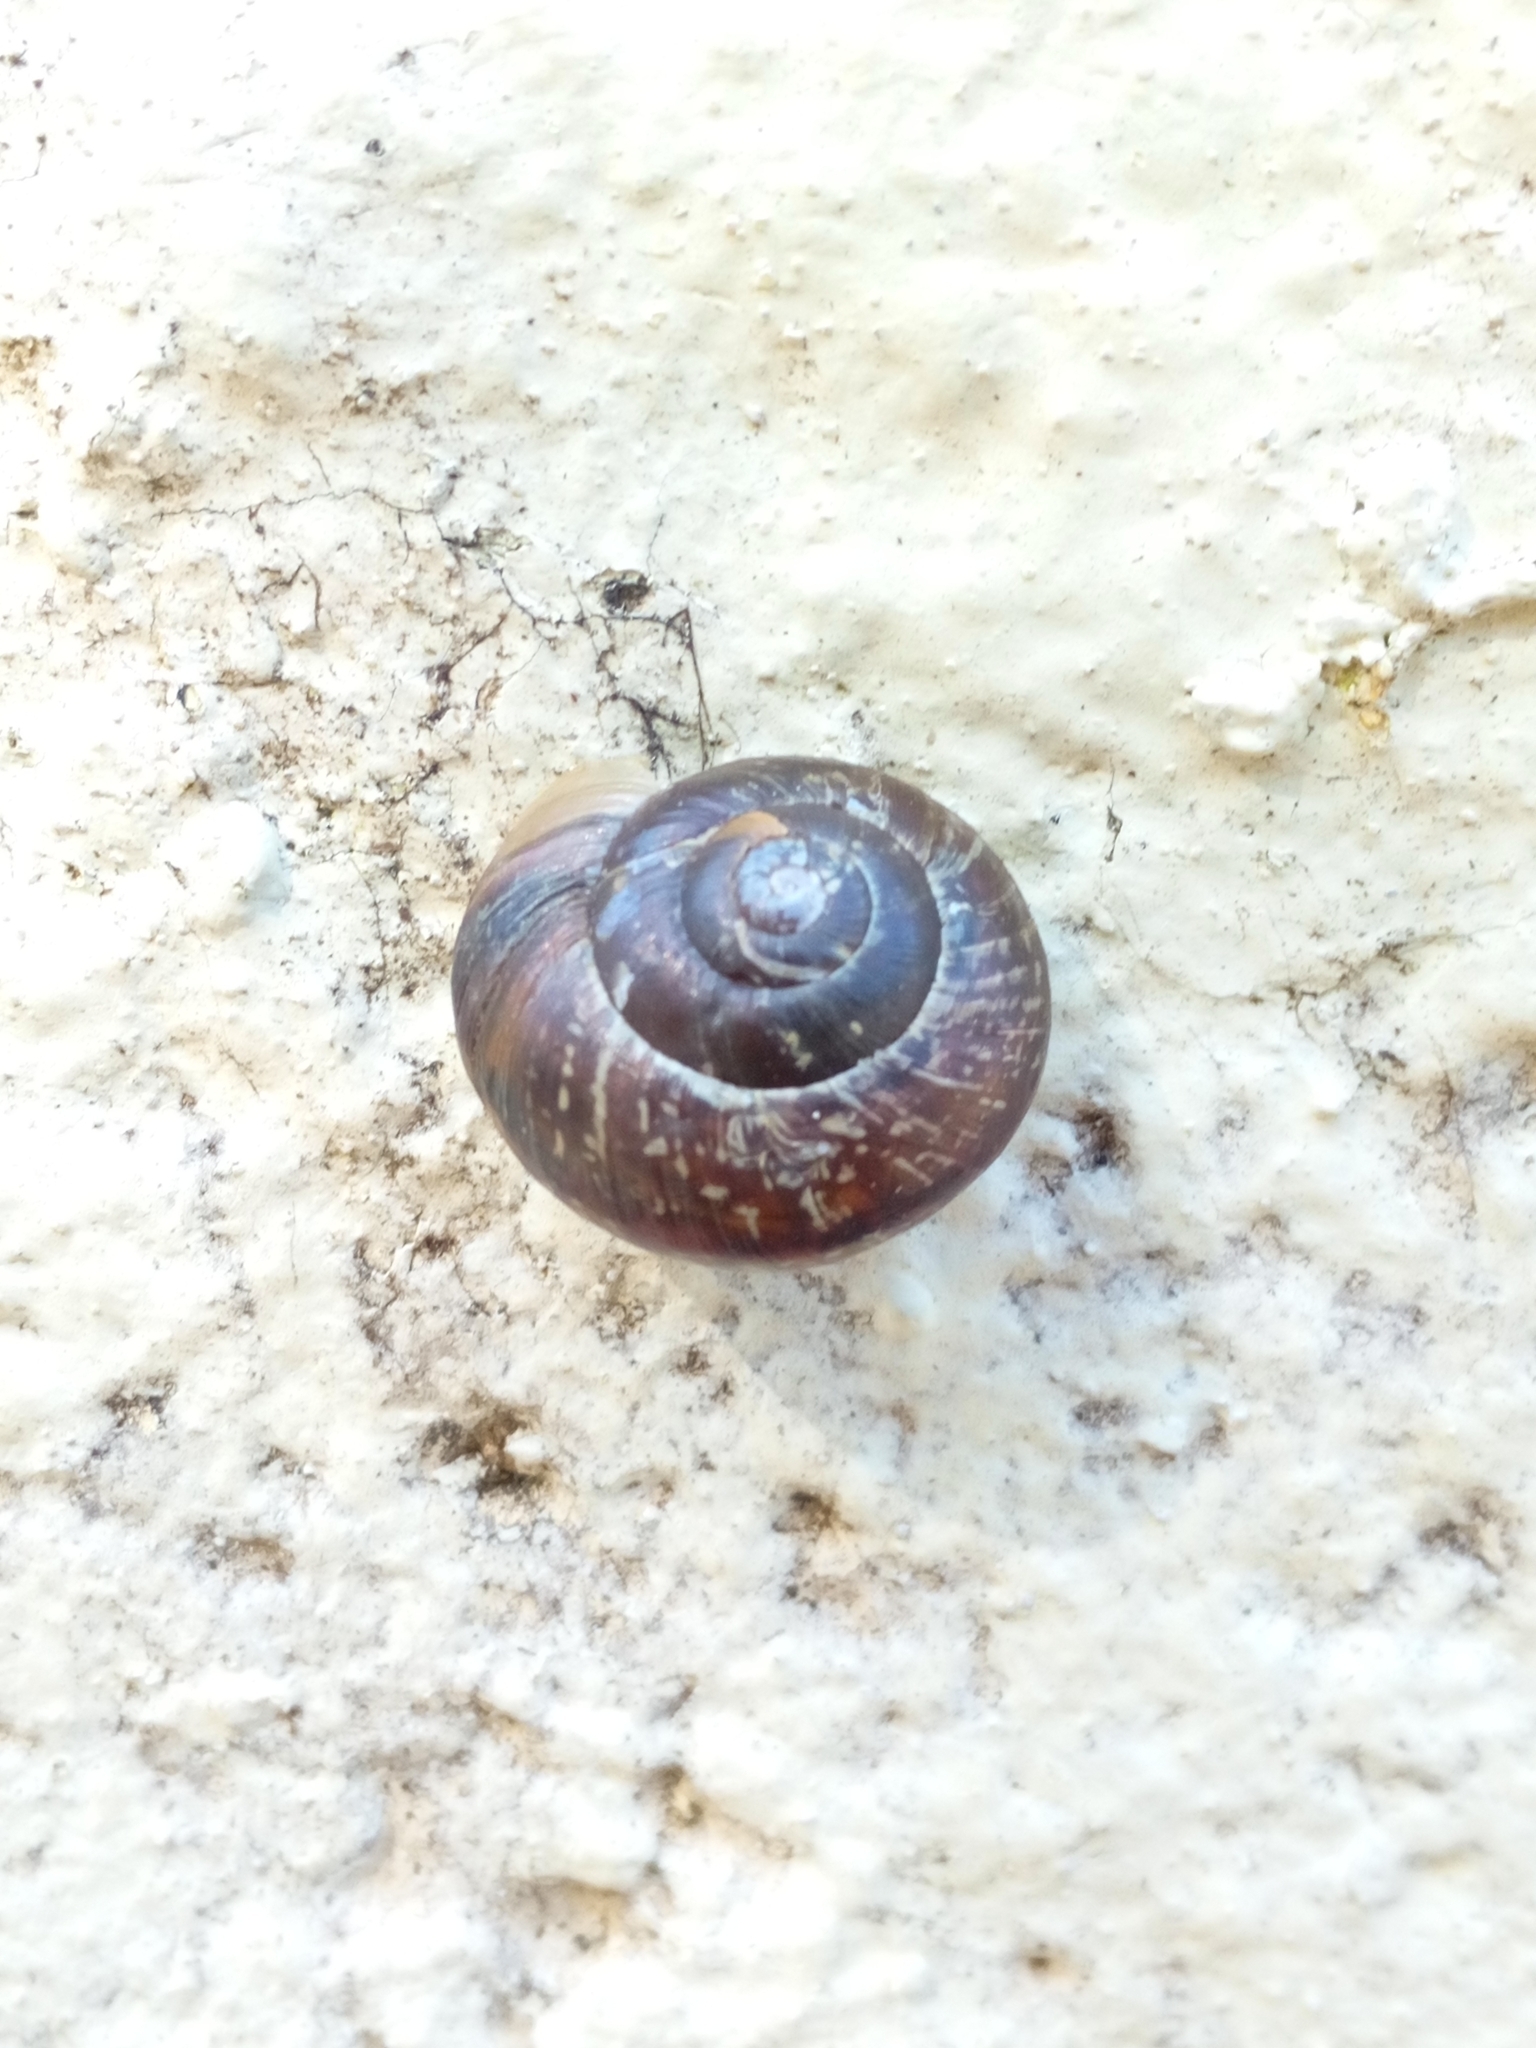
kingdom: Animalia
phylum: Mollusca
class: Gastropoda
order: Stylommatophora
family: Helicidae
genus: Arianta
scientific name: Arianta arbustorum
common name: Copse snail
